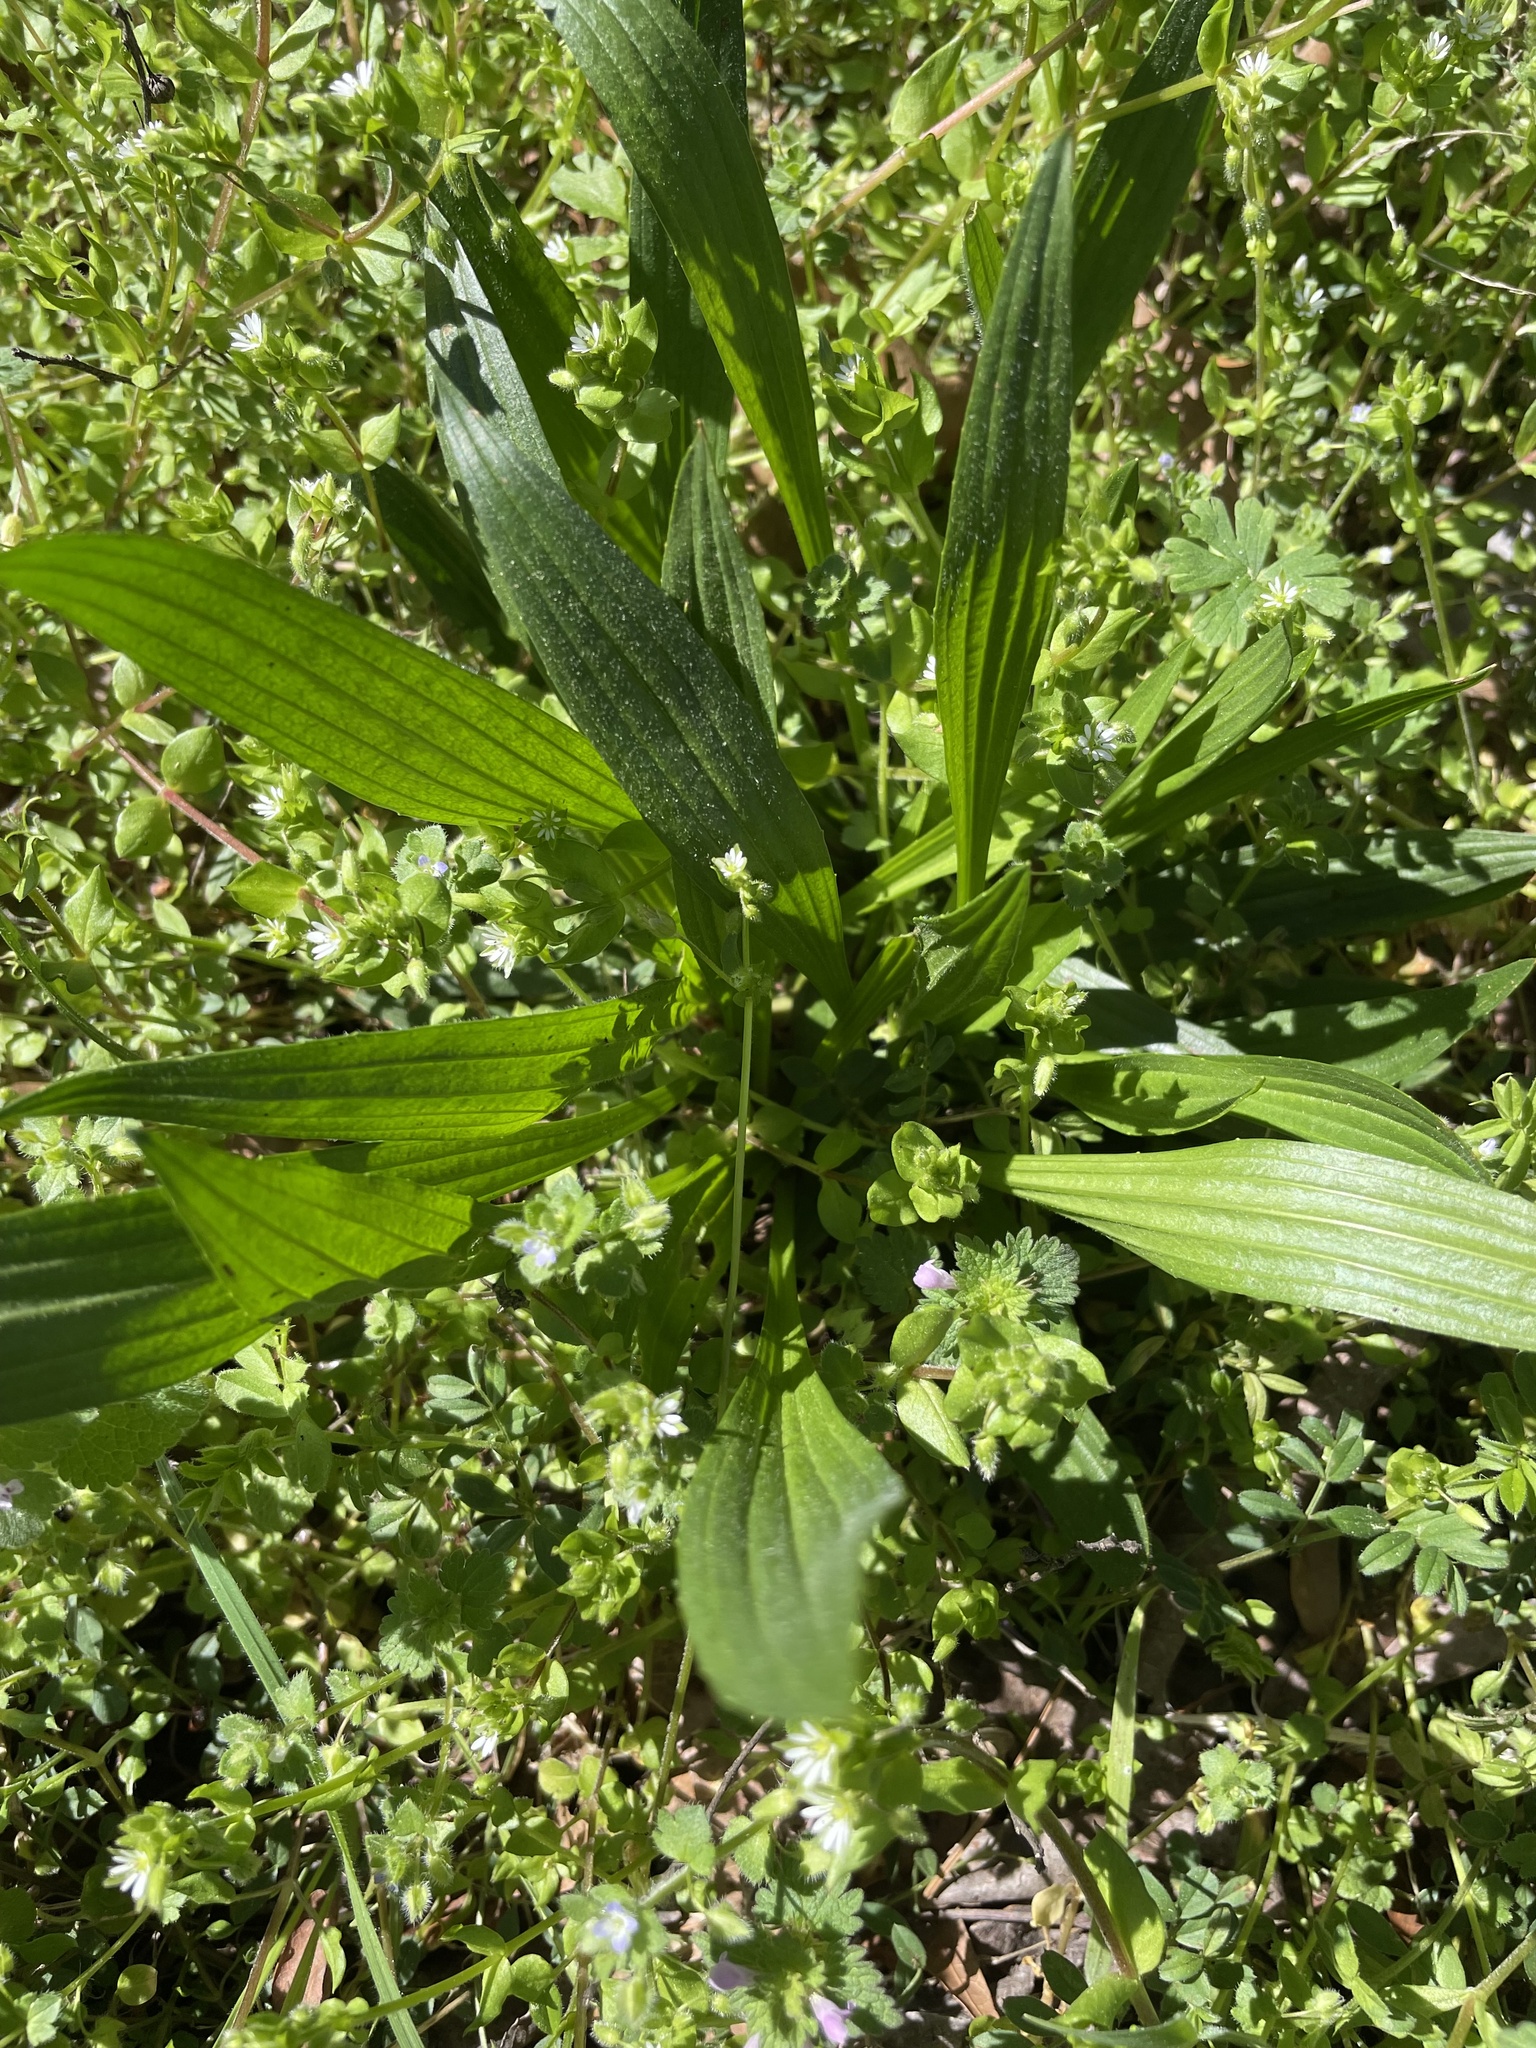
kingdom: Plantae
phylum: Tracheophyta
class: Magnoliopsida
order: Lamiales
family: Plantaginaceae
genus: Plantago
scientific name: Plantago lanceolata
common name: Ribwort plantain
